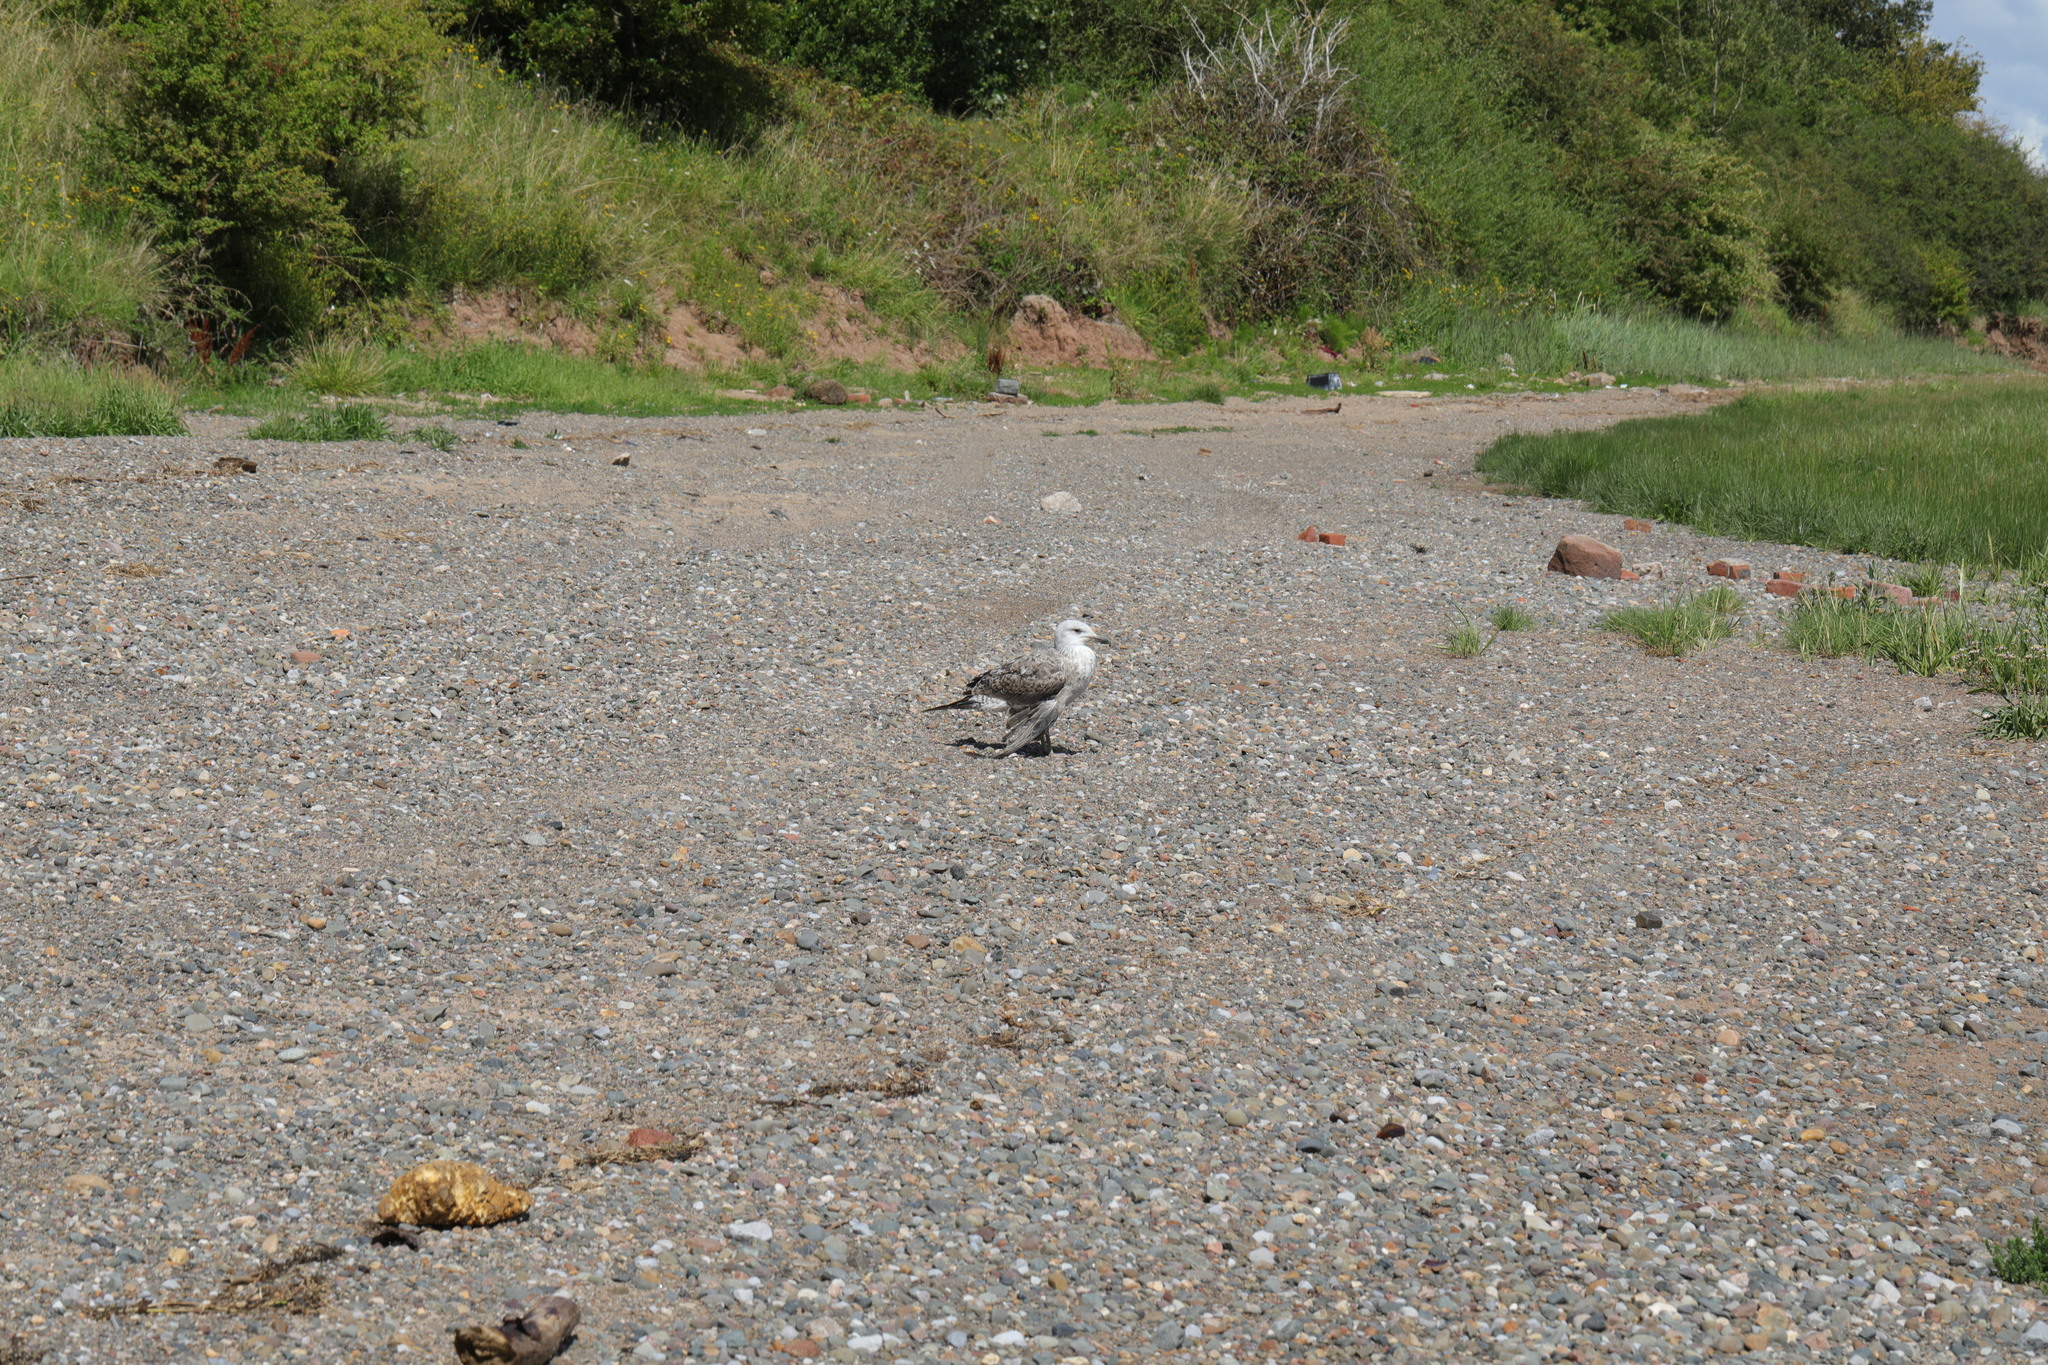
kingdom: Animalia
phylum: Chordata
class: Aves
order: Charadriiformes
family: Laridae
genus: Larus
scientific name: Larus argentatus
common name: Herring gull
